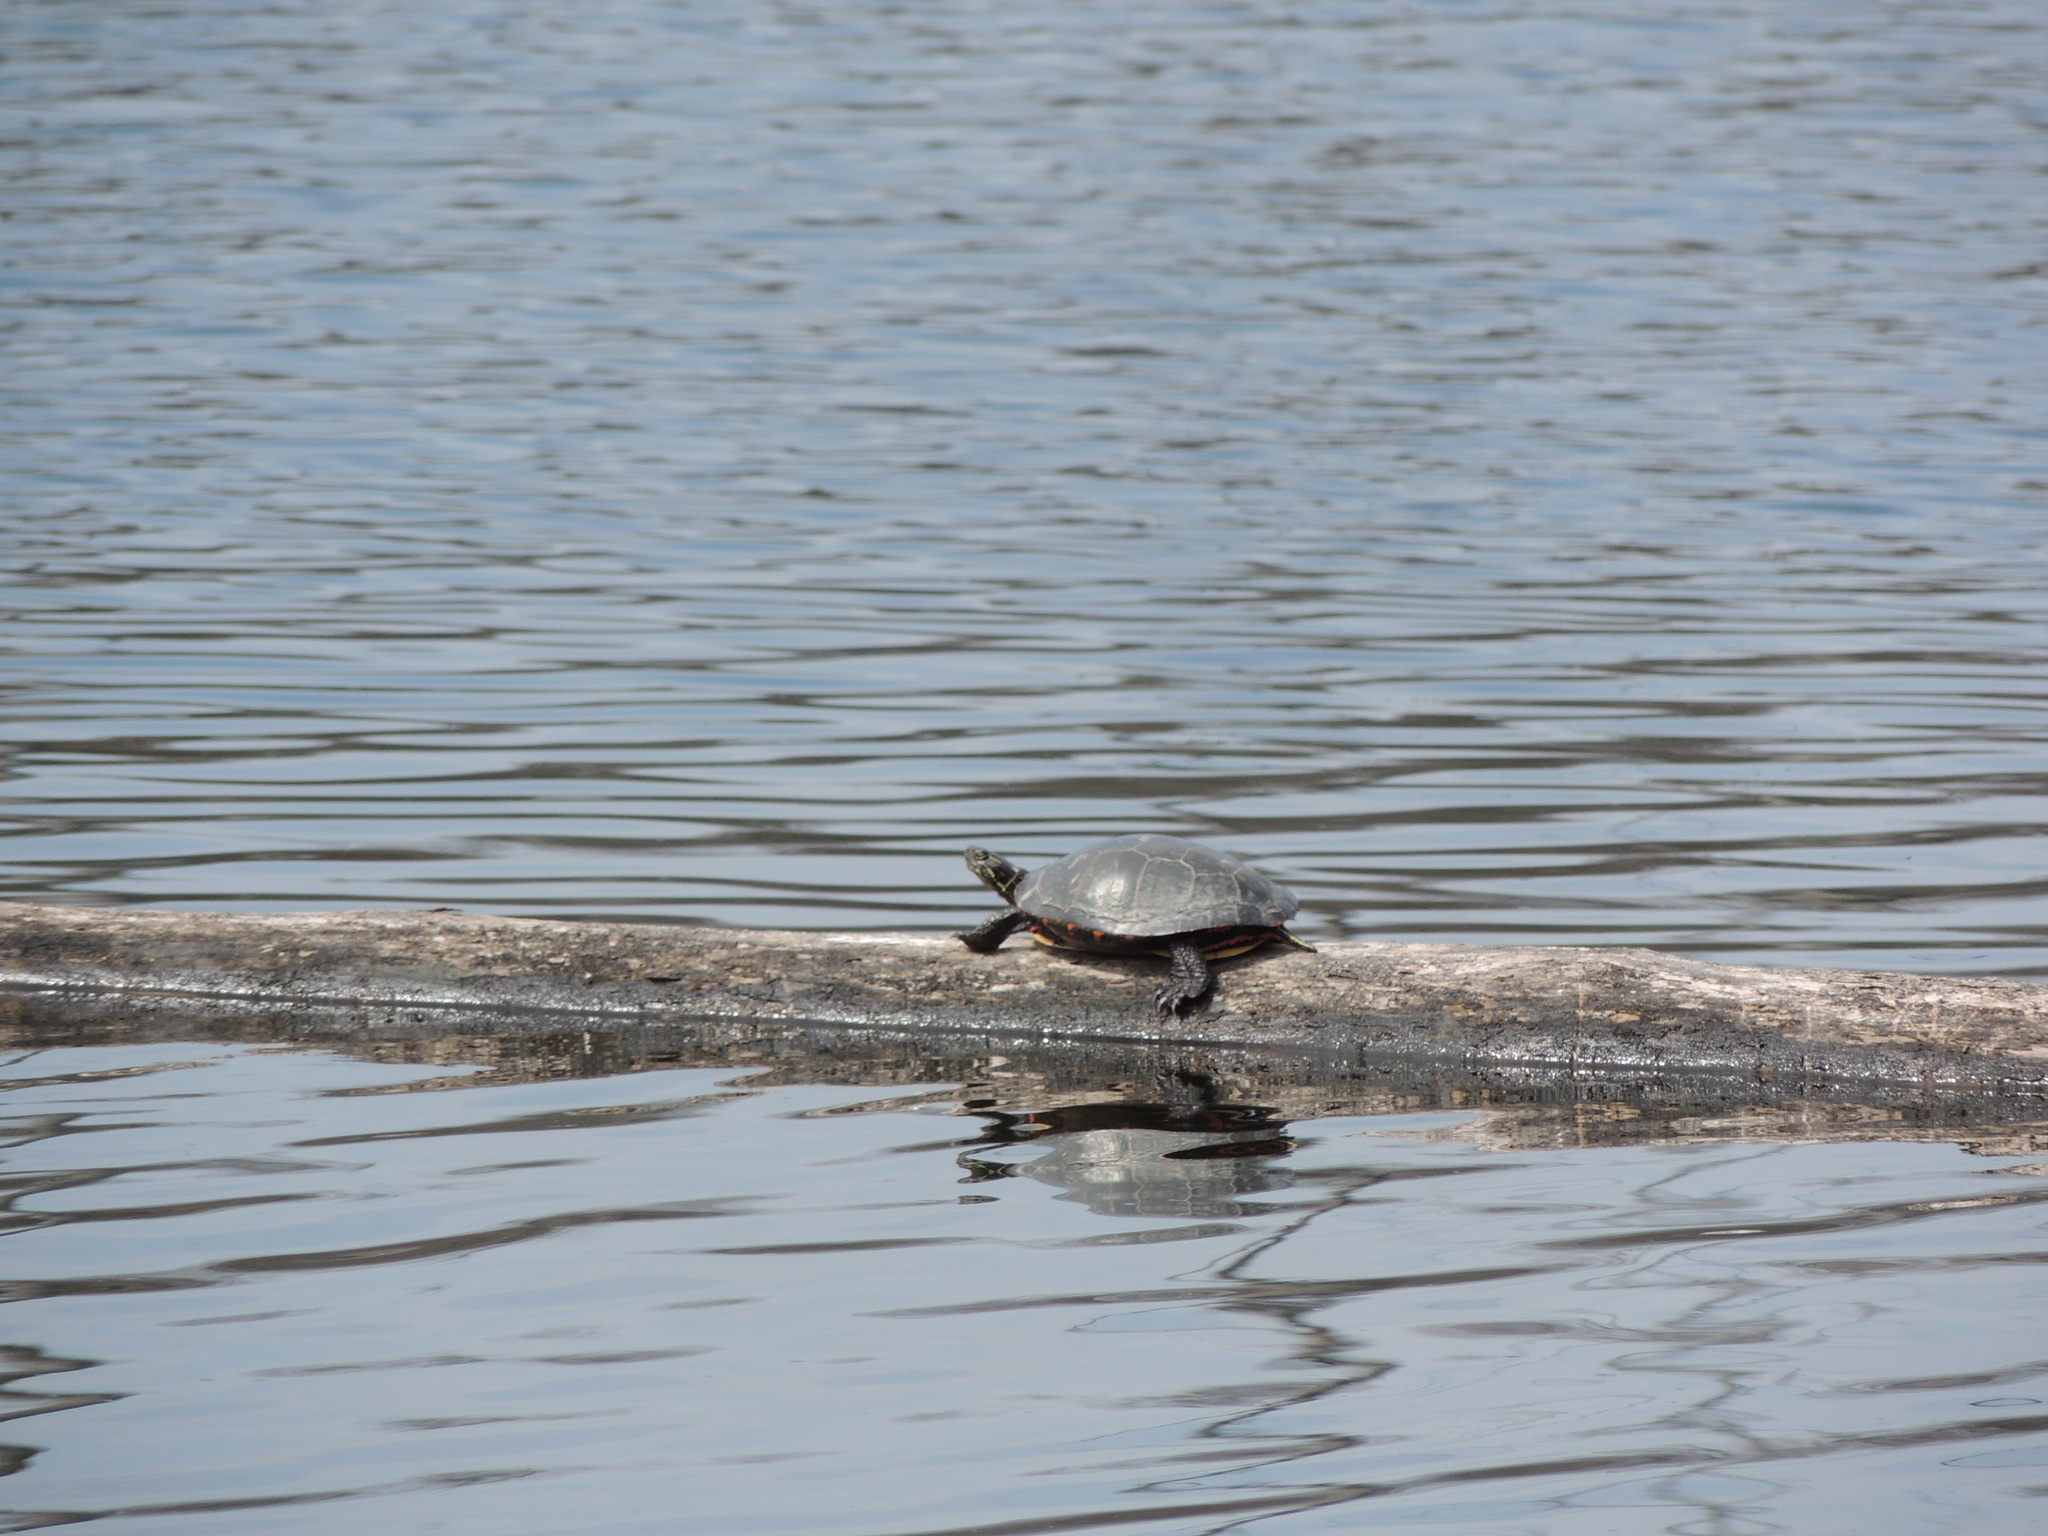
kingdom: Animalia
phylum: Chordata
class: Testudines
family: Emydidae
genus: Chrysemys
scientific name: Chrysemys picta
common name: Painted turtle
